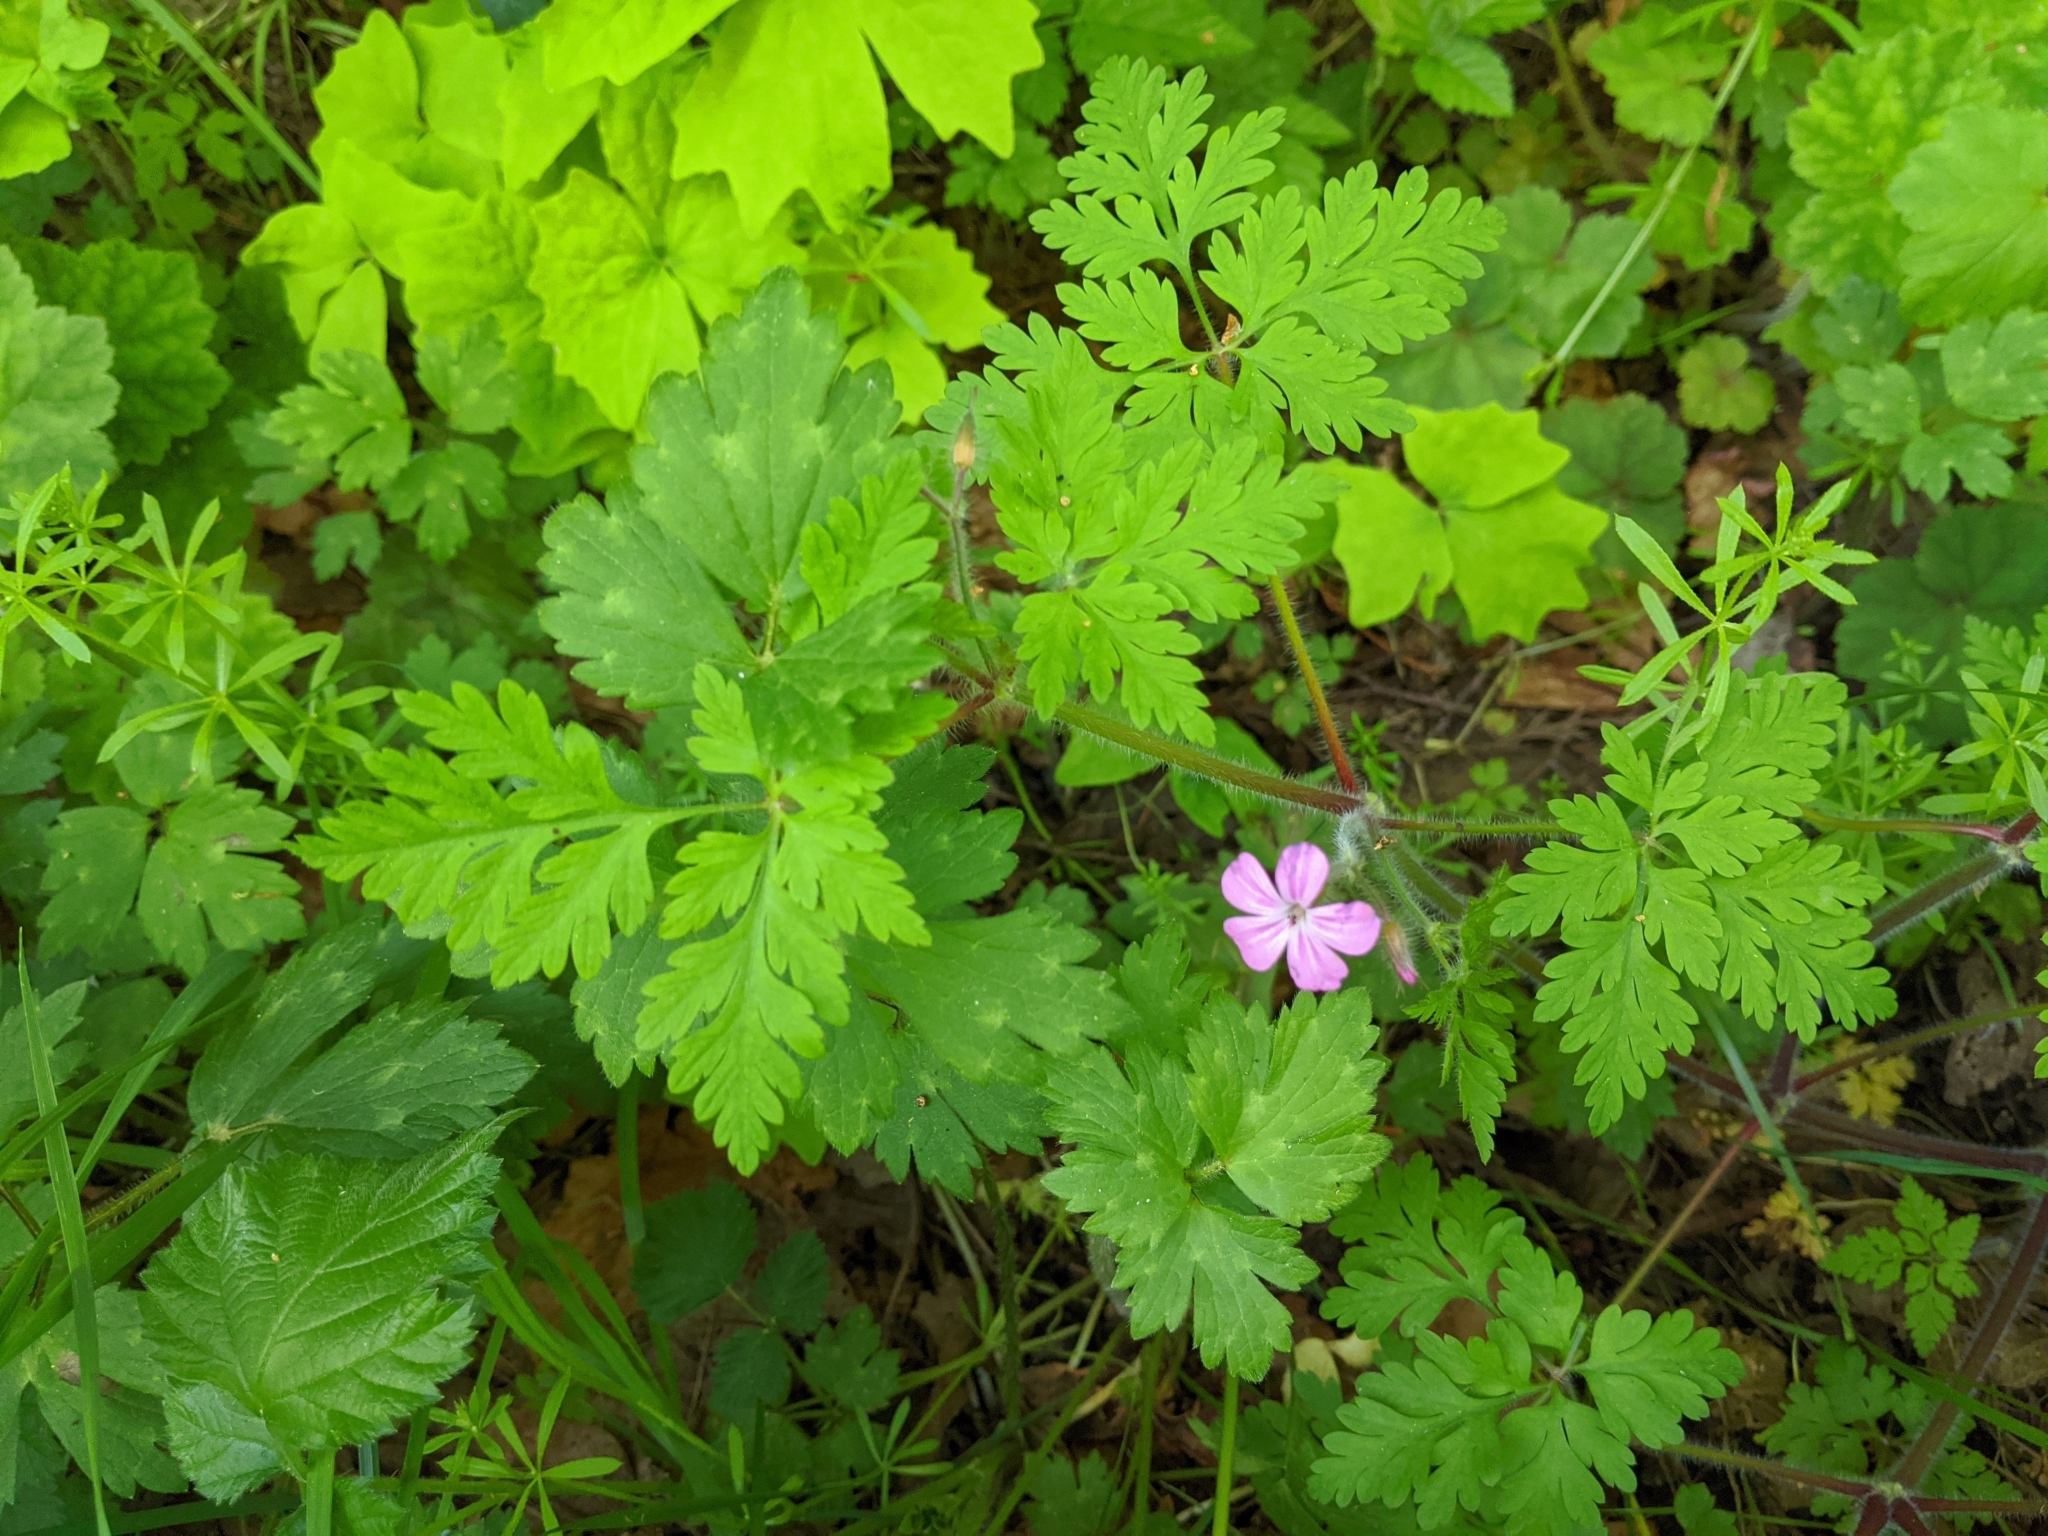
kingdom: Plantae
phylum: Tracheophyta
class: Magnoliopsida
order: Geraniales
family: Geraniaceae
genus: Geranium
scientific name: Geranium robertianum
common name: Herb-robert
